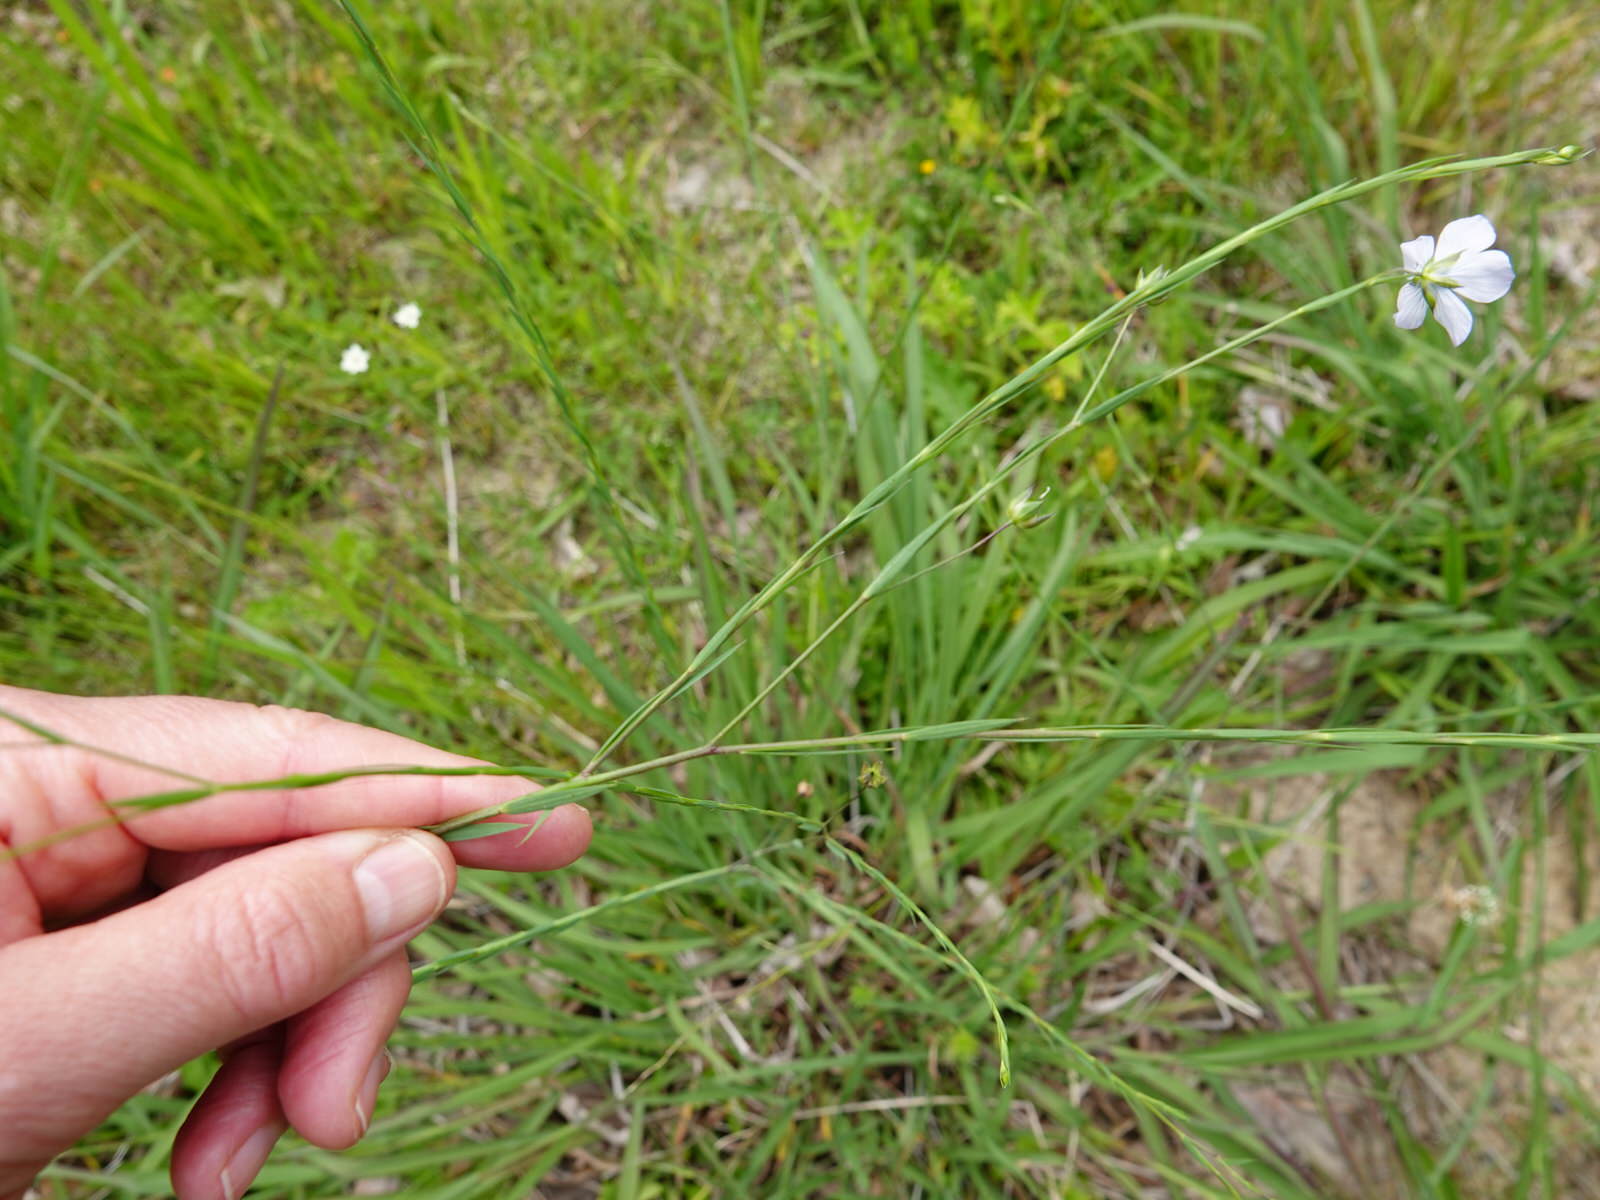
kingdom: Plantae
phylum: Tracheophyta
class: Magnoliopsida
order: Malpighiales
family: Linaceae
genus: Linum
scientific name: Linum bienne
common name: Pale flax
